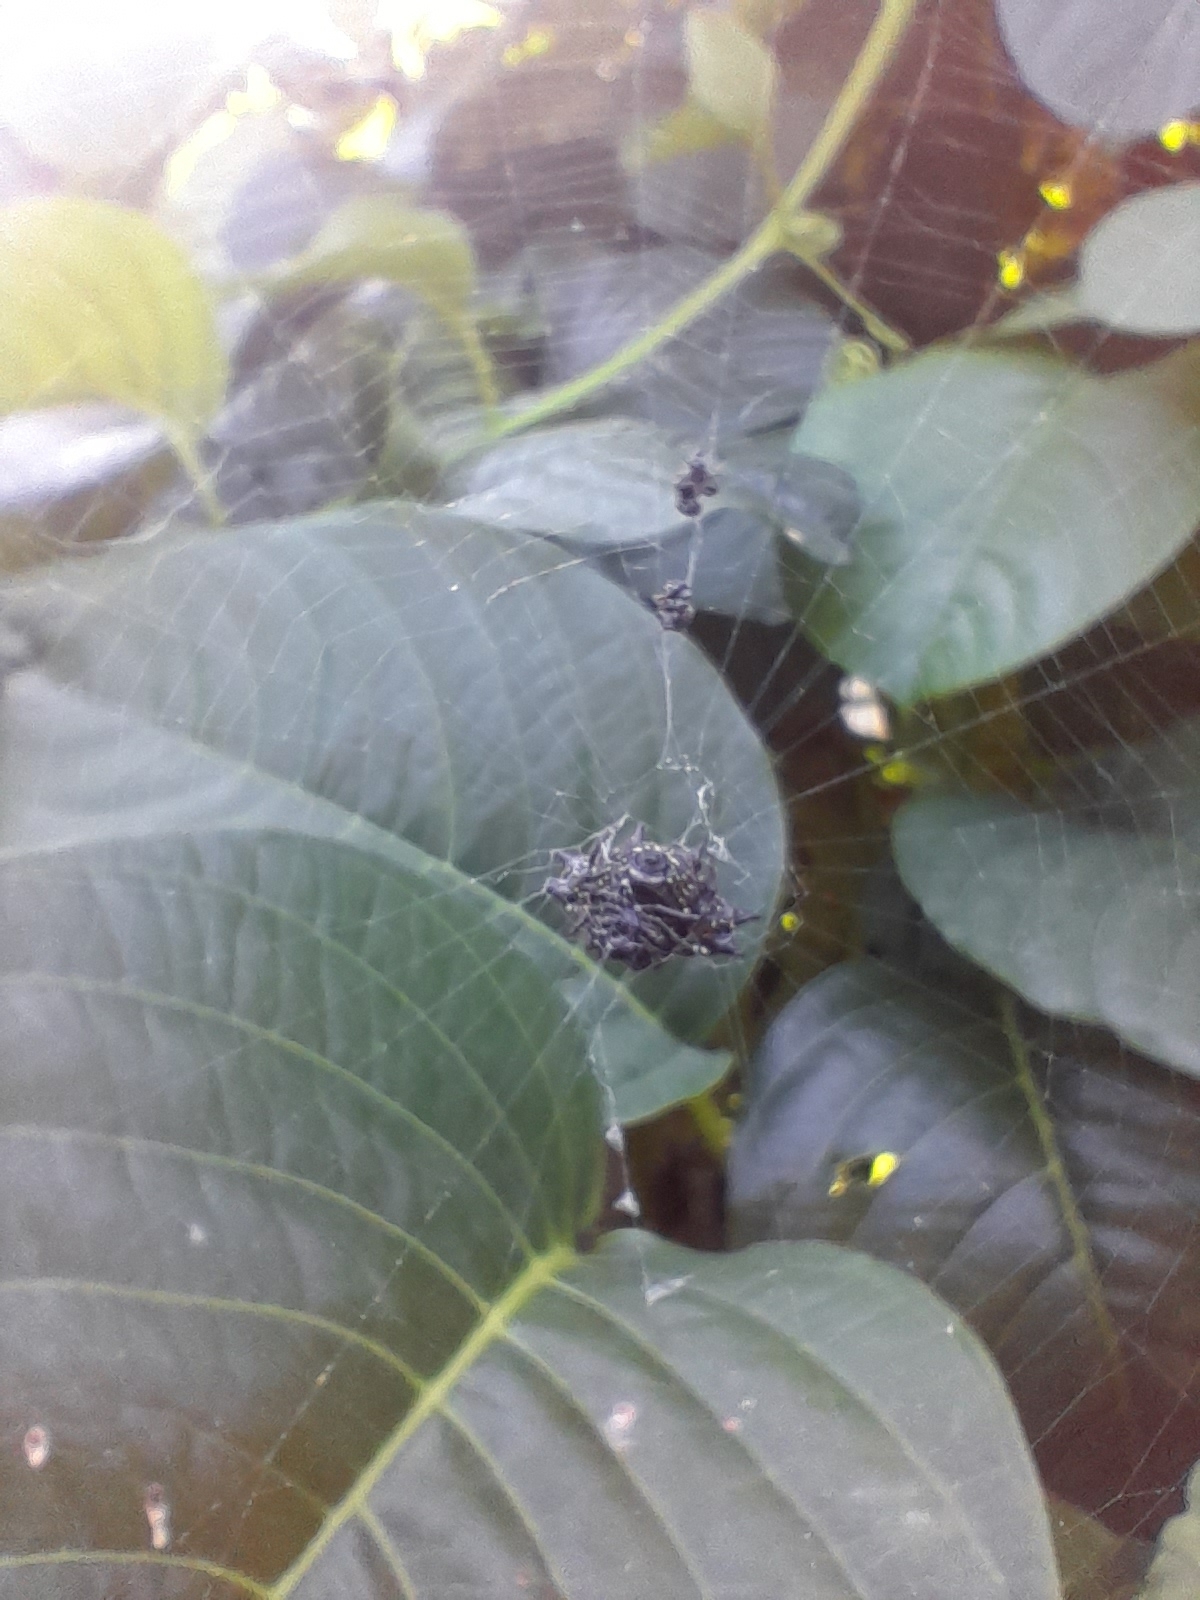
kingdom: Animalia
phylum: Arthropoda
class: Arachnida
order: Araneae
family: Araneidae
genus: Gasteracantha
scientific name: Gasteracantha cancriformis
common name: Orb weavers
